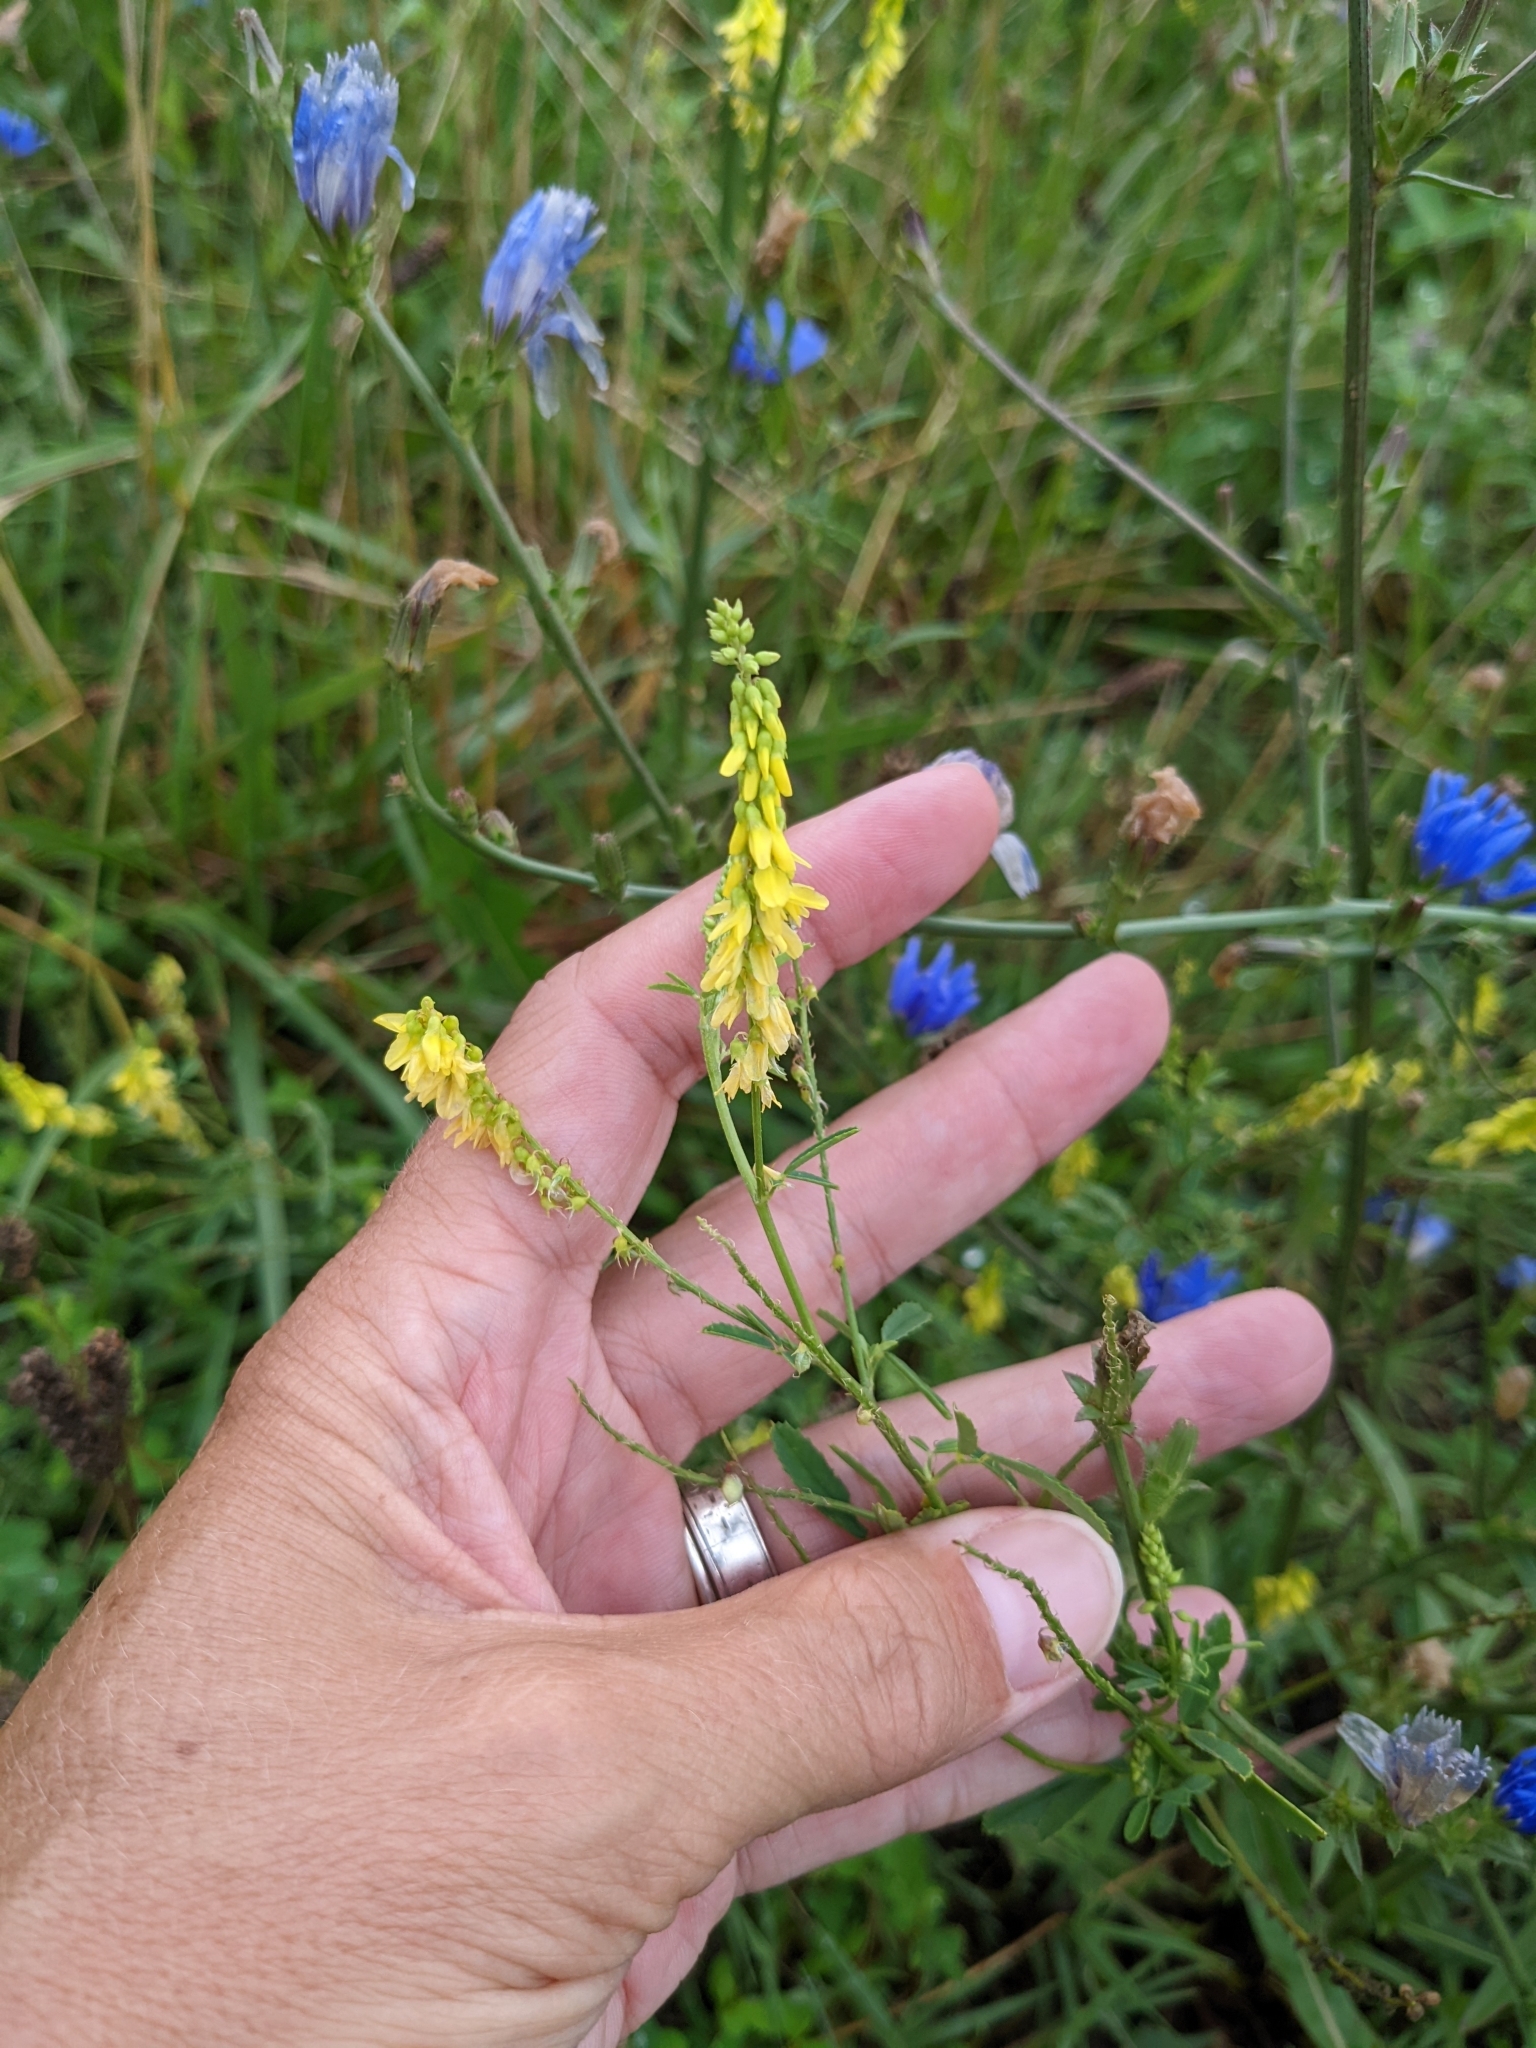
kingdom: Plantae
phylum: Tracheophyta
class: Magnoliopsida
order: Fabales
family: Fabaceae
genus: Melilotus
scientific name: Melilotus officinalis
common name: Sweetclover
